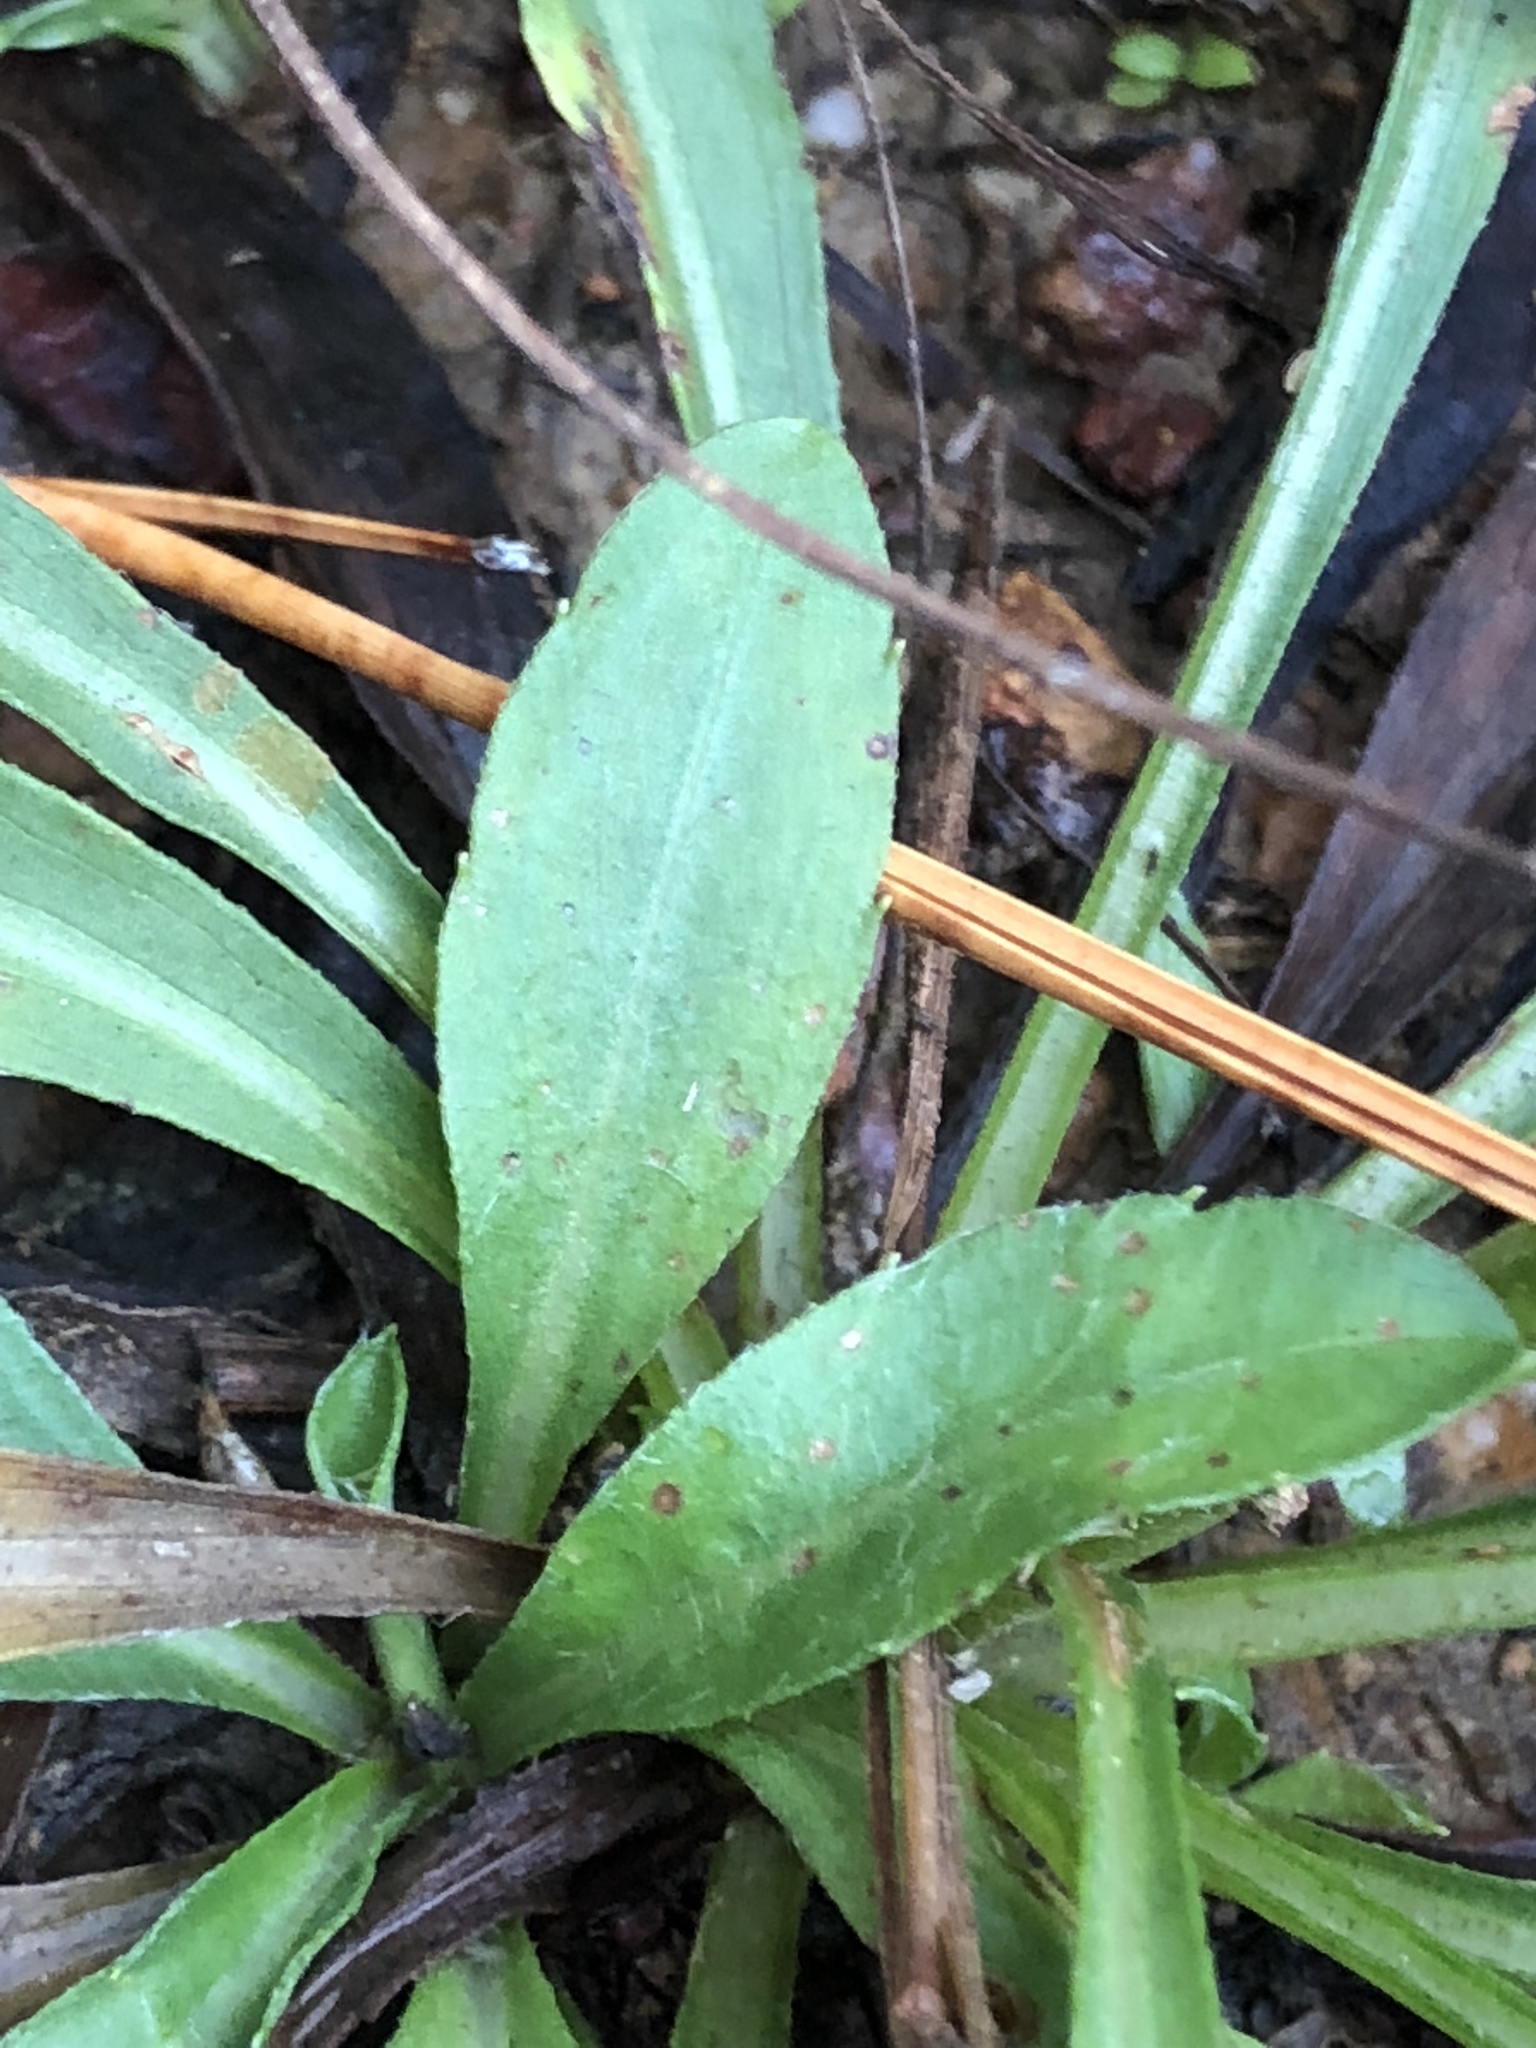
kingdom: Plantae
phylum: Tracheophyta
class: Magnoliopsida
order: Asterales
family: Asteraceae
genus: Chrysopsis
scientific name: Chrysopsis mariana
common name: Maryland golden-aster
